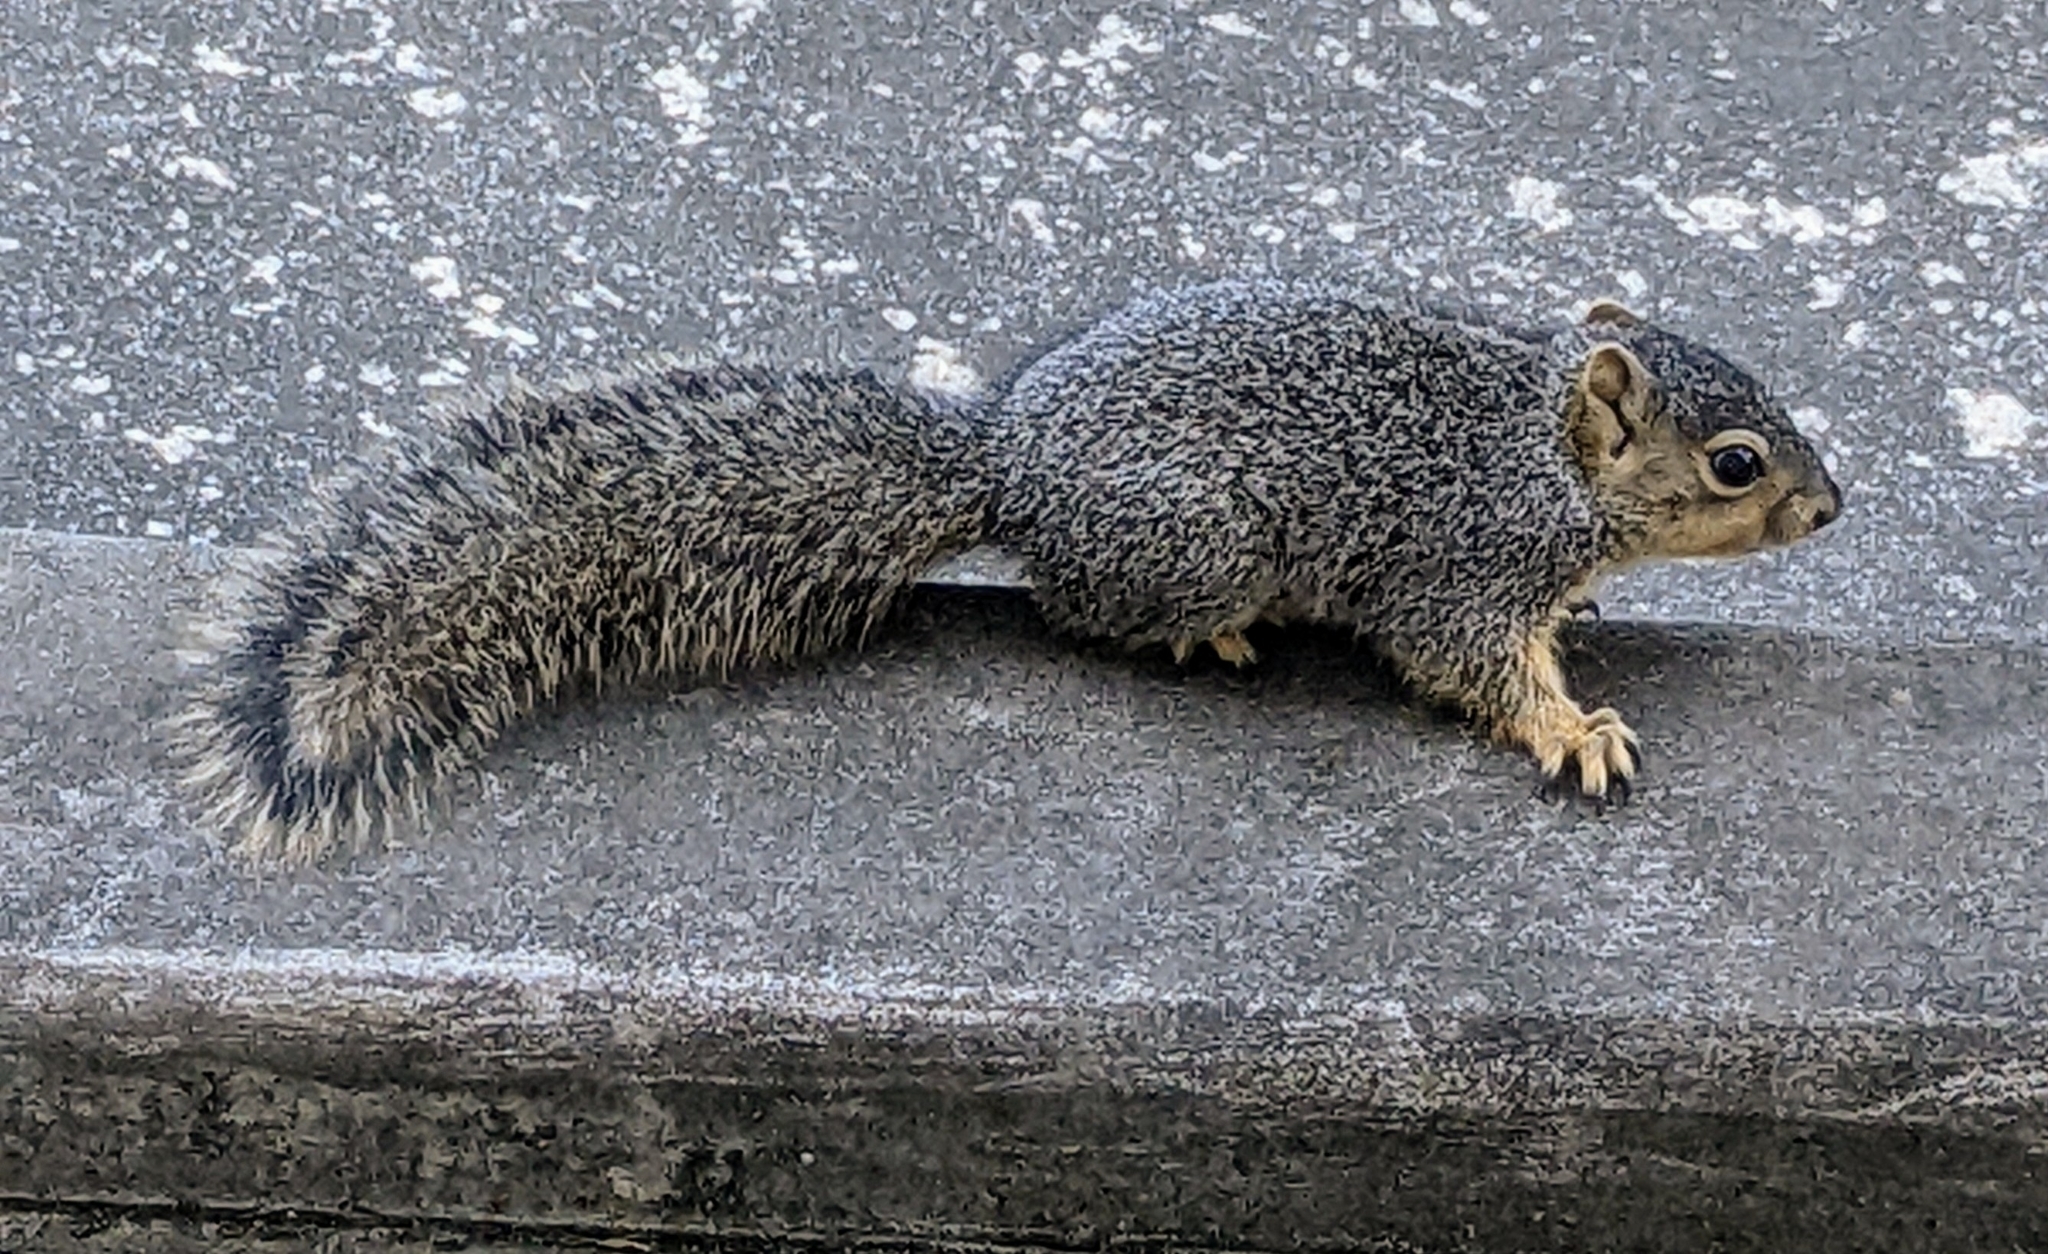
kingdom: Animalia
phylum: Chordata
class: Mammalia
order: Rodentia
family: Sciuridae
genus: Sciurus
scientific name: Sciurus niger
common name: Fox squirrel
